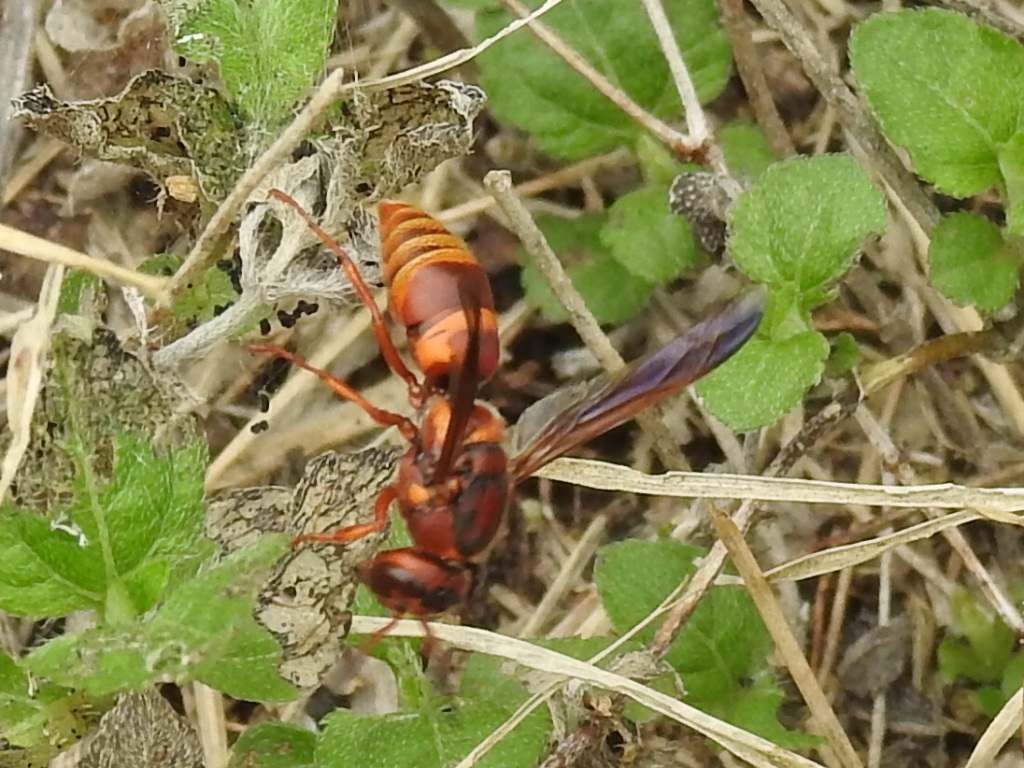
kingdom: Animalia
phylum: Arthropoda
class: Insecta
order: Hymenoptera
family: Eumenidae
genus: Euodynerus
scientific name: Euodynerus pratensis
